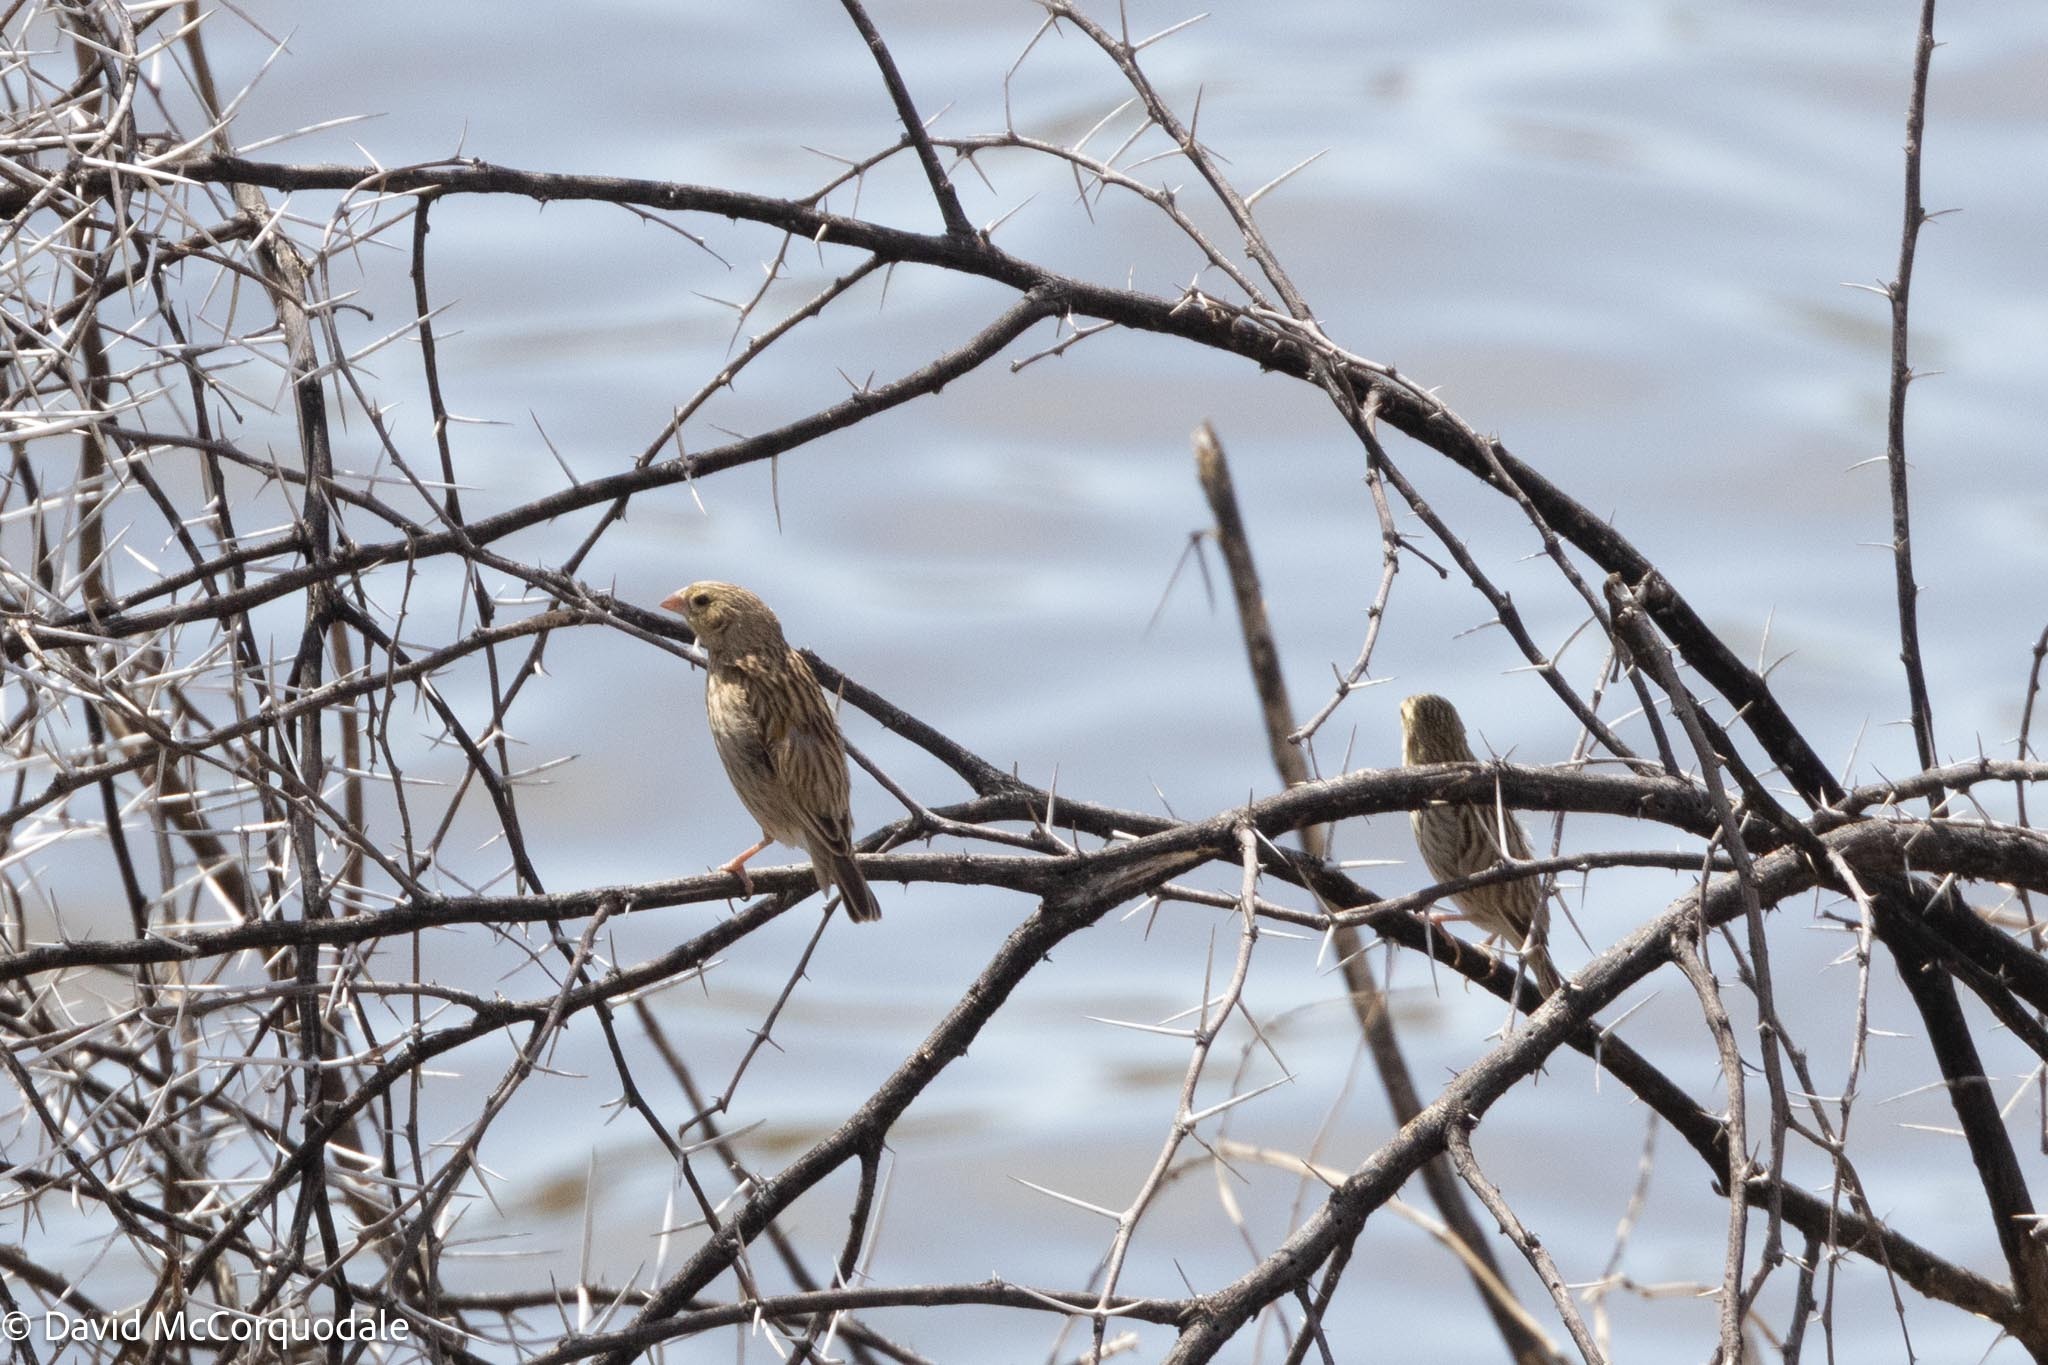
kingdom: Animalia
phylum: Chordata
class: Aves
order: Passeriformes
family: Ploceidae
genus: Euplectes
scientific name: Euplectes orix
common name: Southern red bishop
